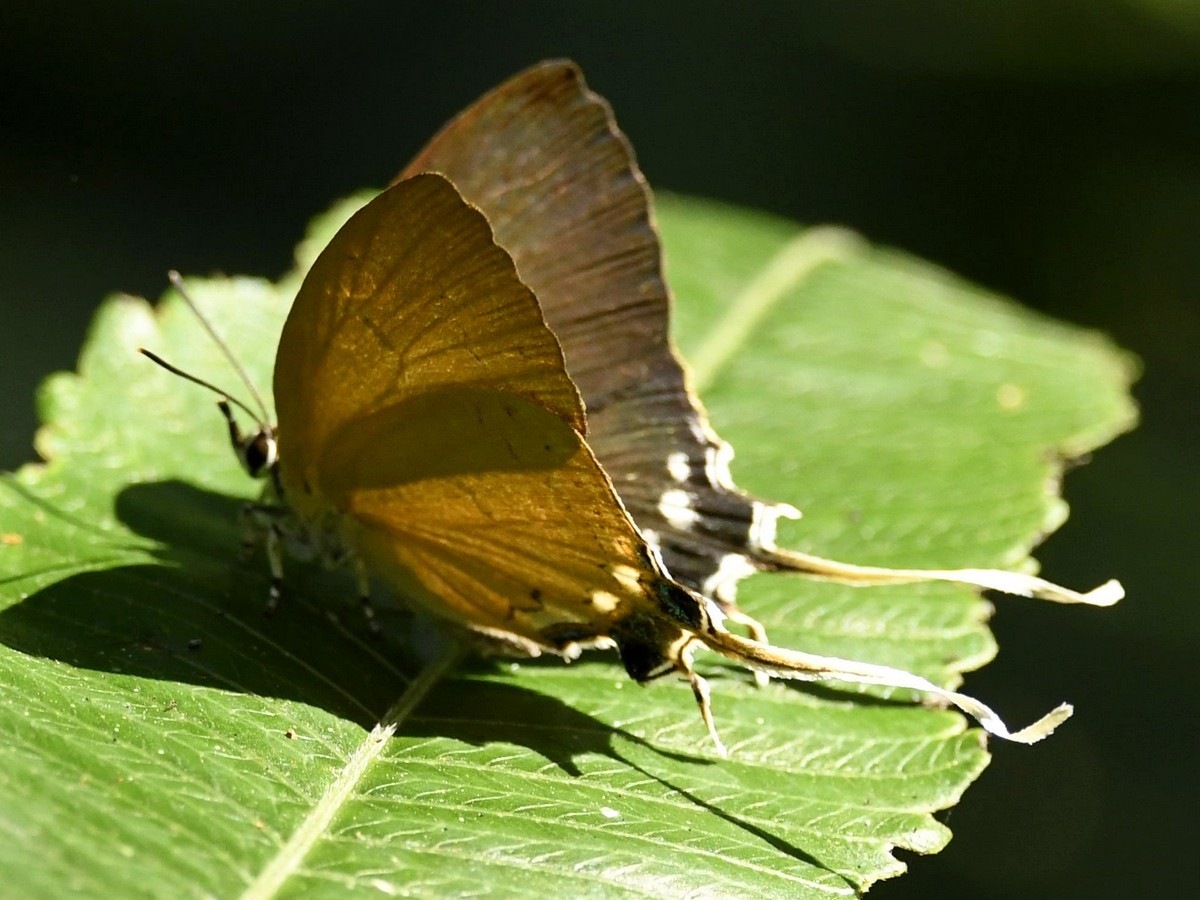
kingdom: Animalia
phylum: Arthropoda
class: Insecta
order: Lepidoptera
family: Lycaenidae
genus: Ticherra
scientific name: Ticherra acte
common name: Blue imperial
